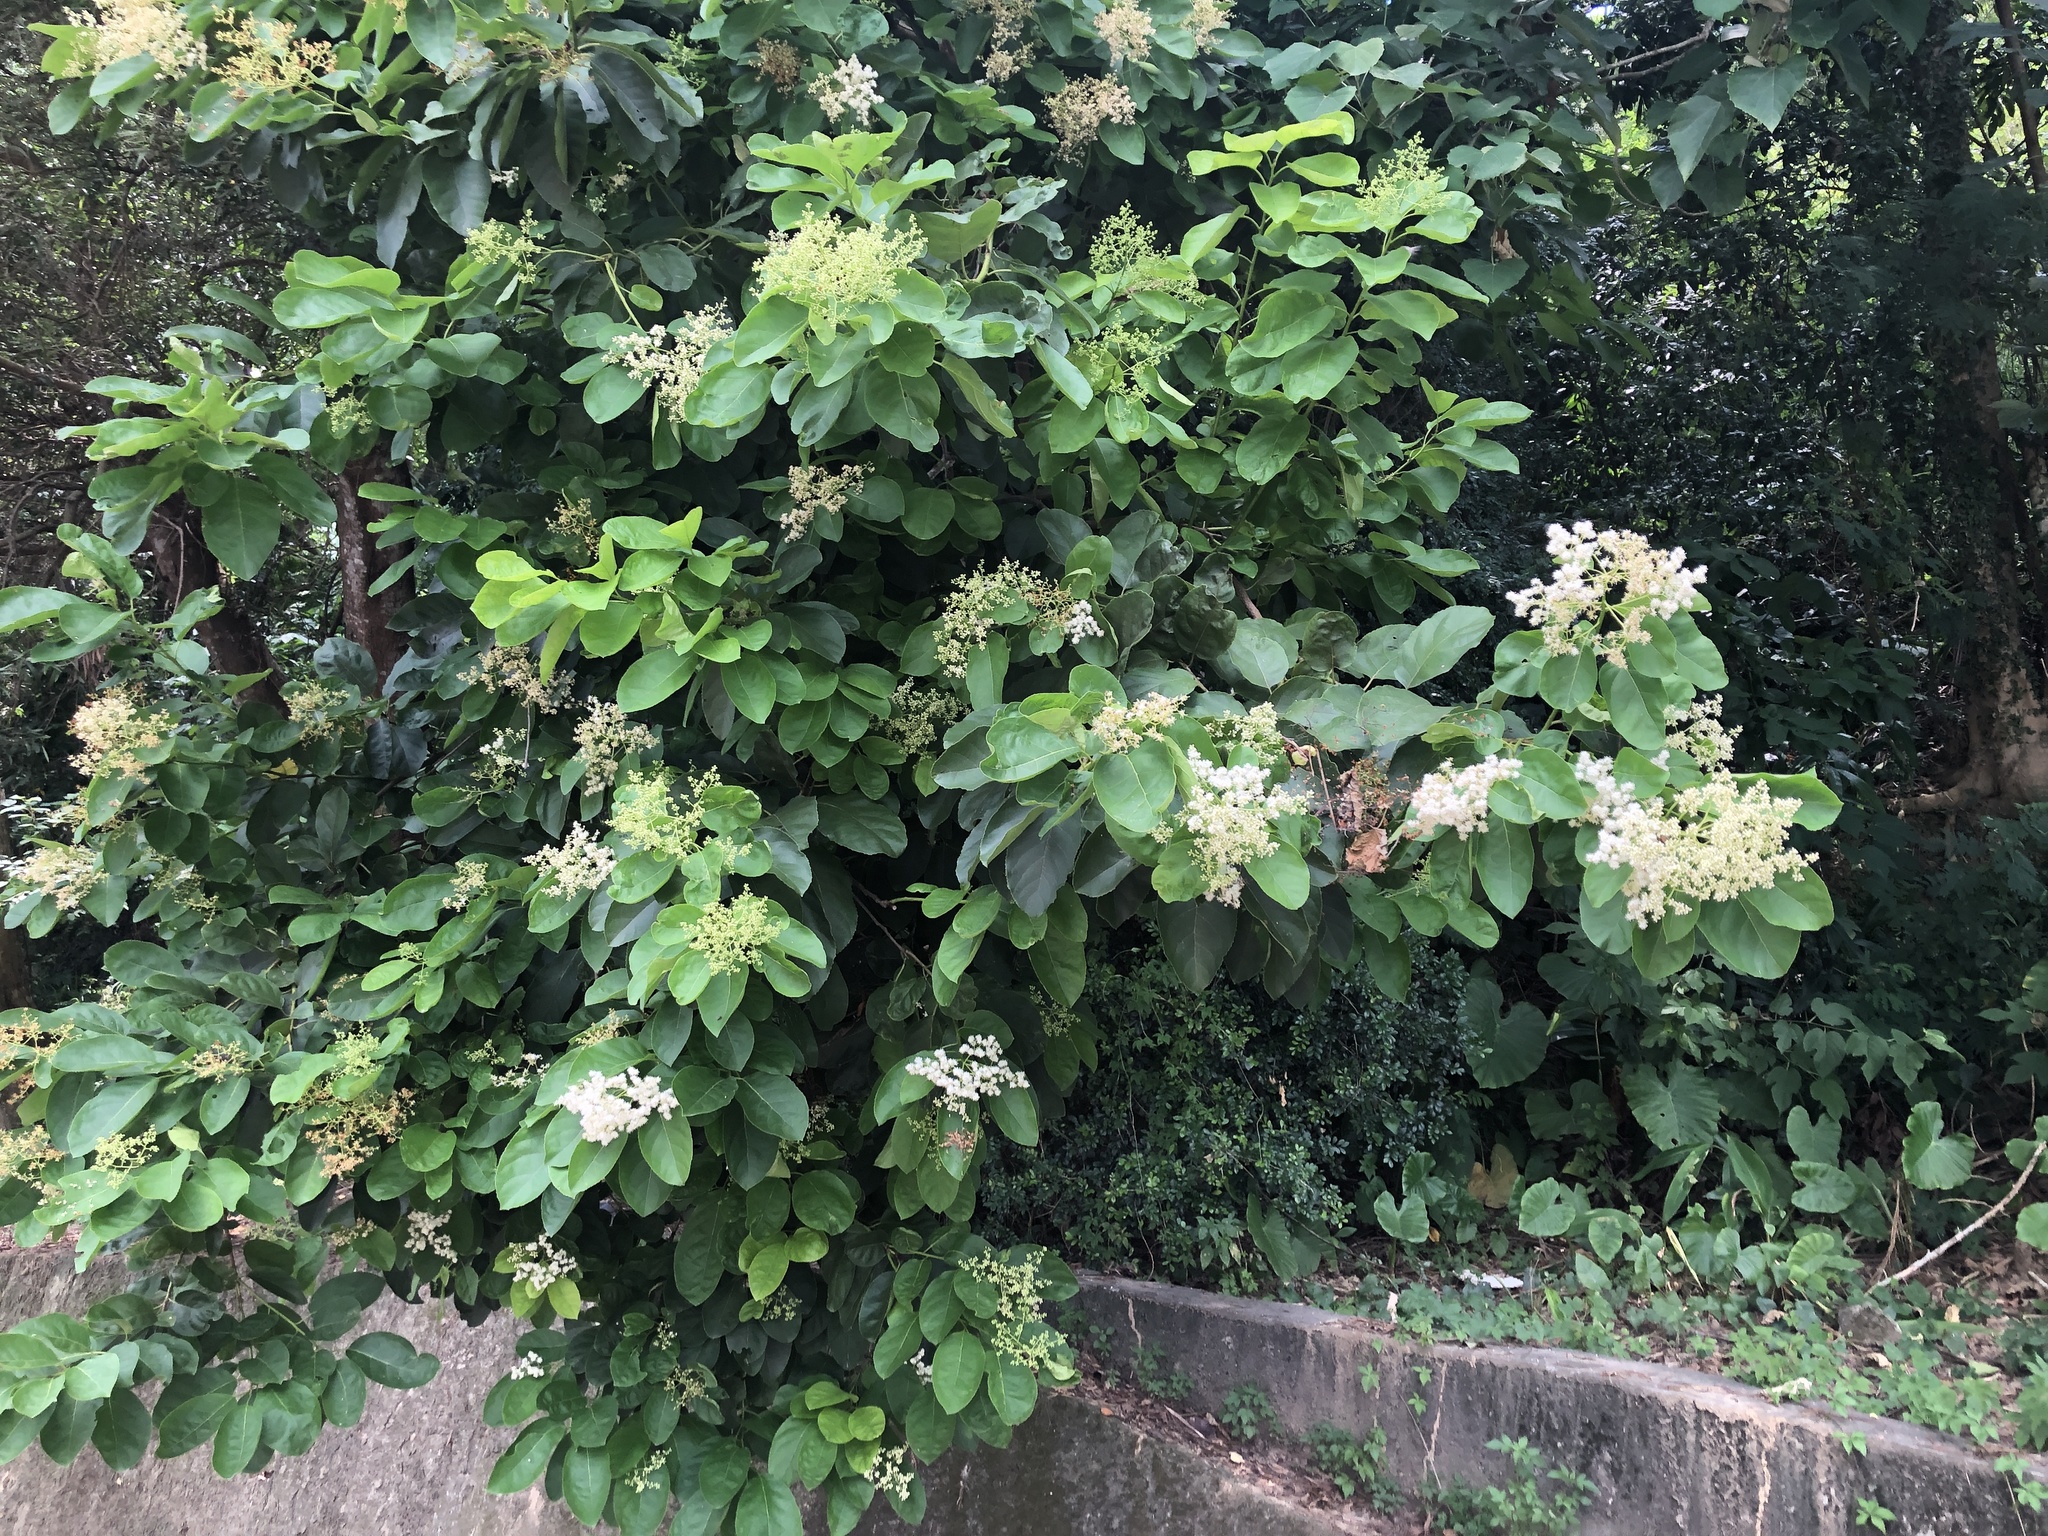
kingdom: Plantae
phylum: Tracheophyta
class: Magnoliopsida
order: Boraginales
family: Ehretiaceae
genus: Ehretia
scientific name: Ehretia acuminata
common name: Kodo wood
